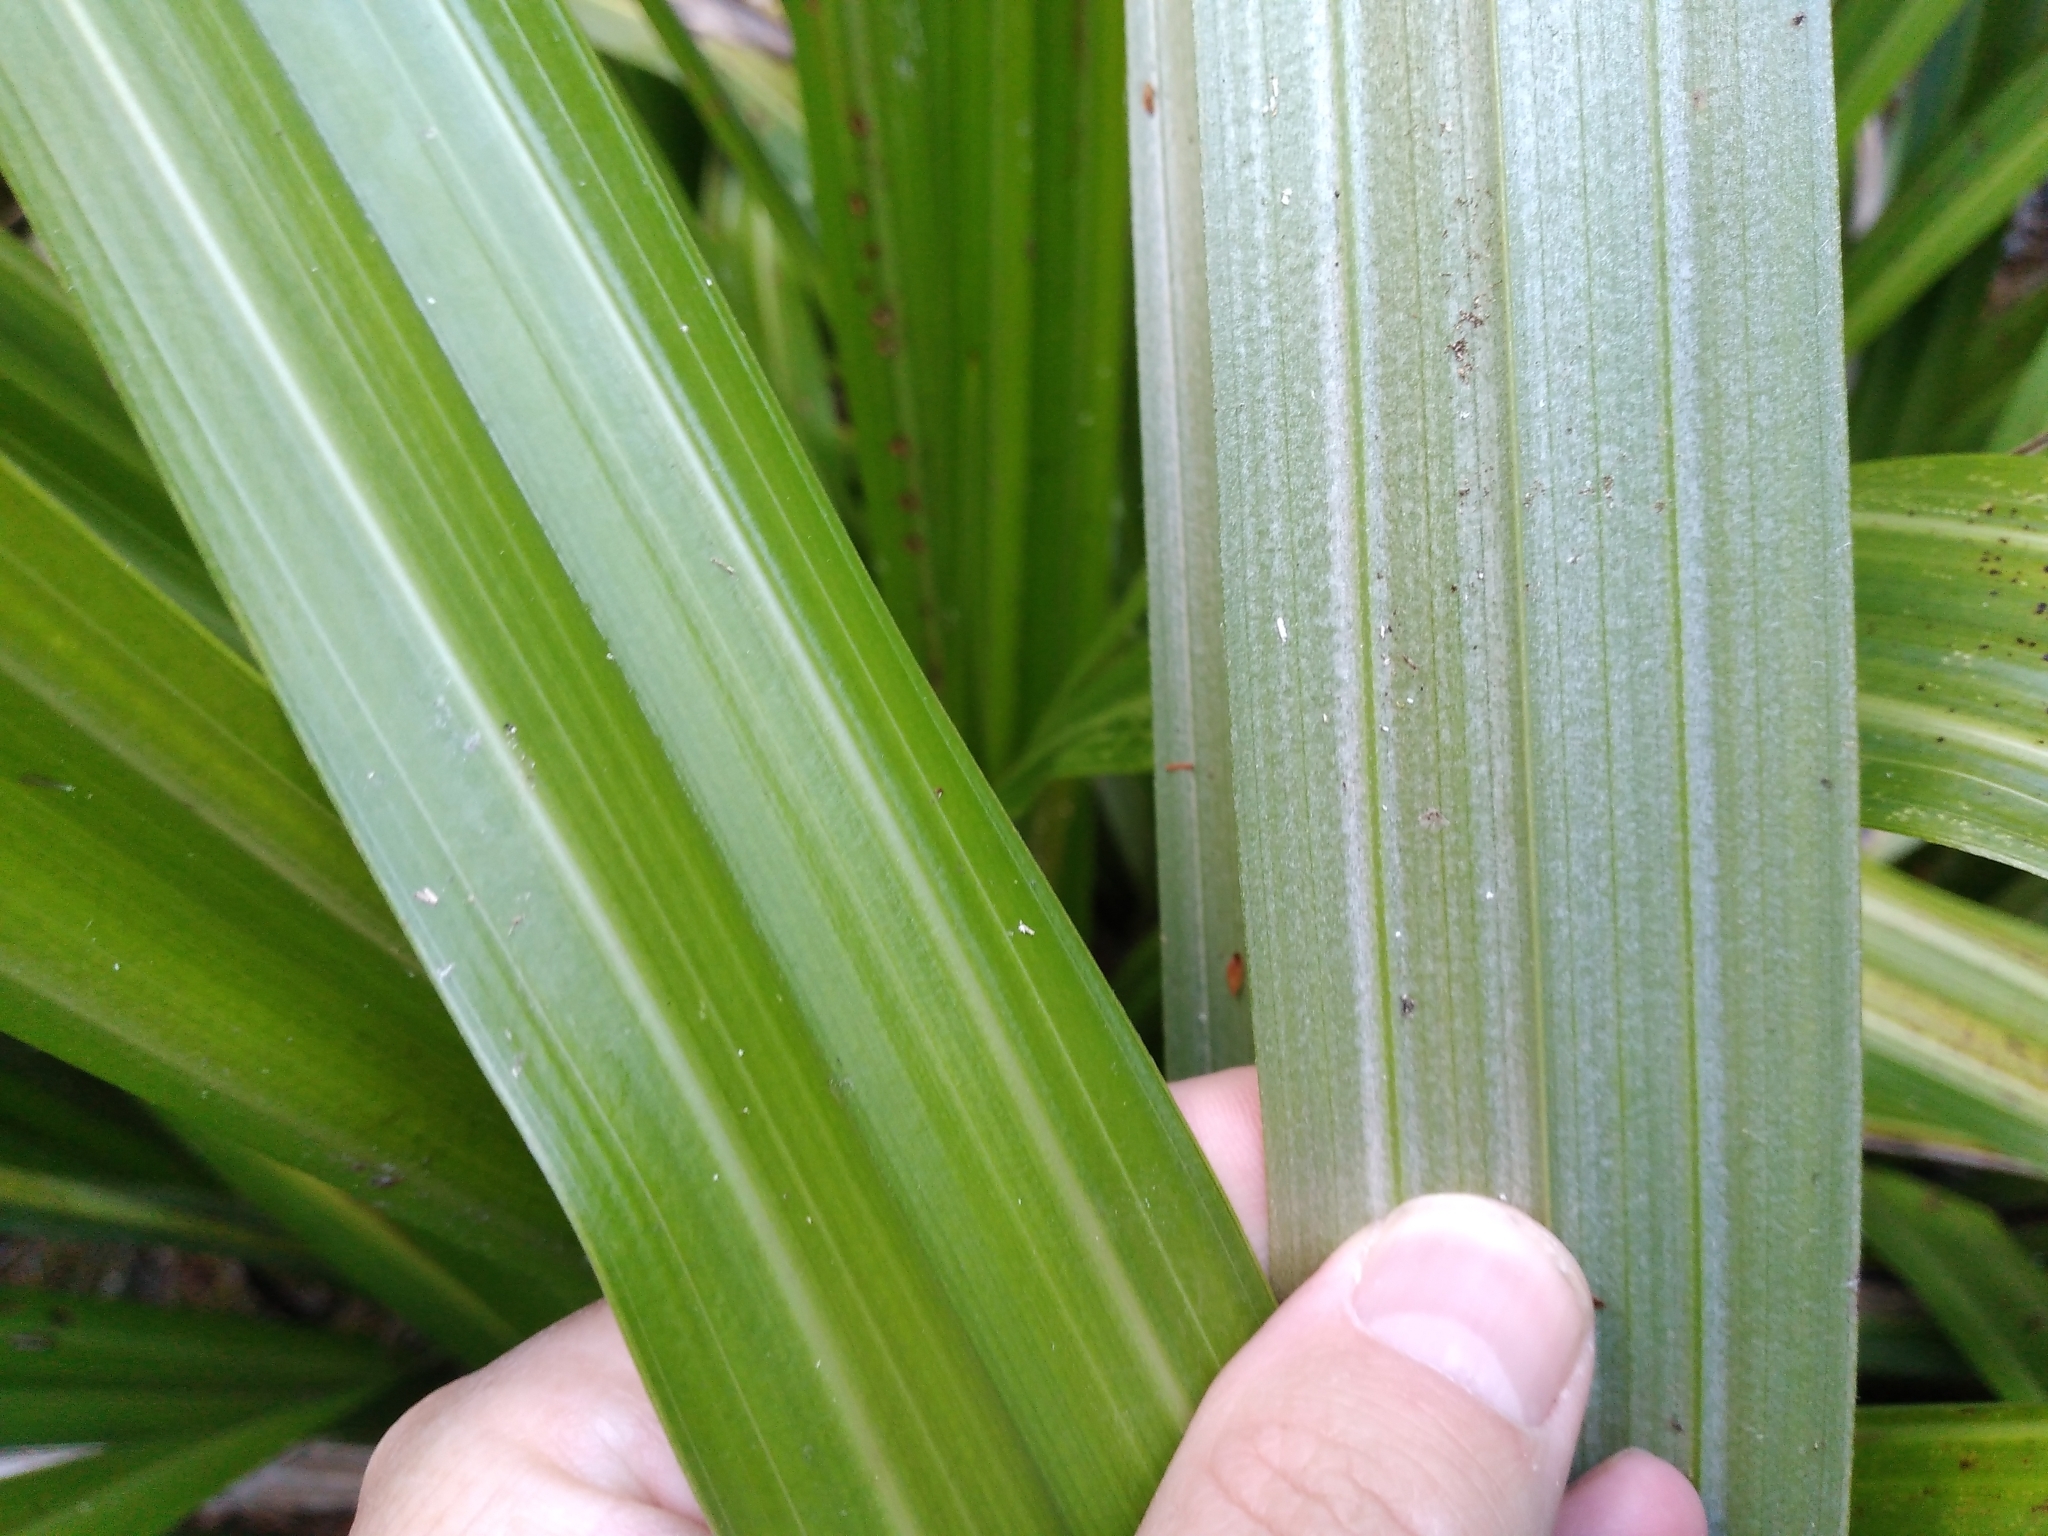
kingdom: Plantae
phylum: Tracheophyta
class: Liliopsida
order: Asparagales
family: Asteliaceae
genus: Astelia
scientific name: Astelia fragrans
